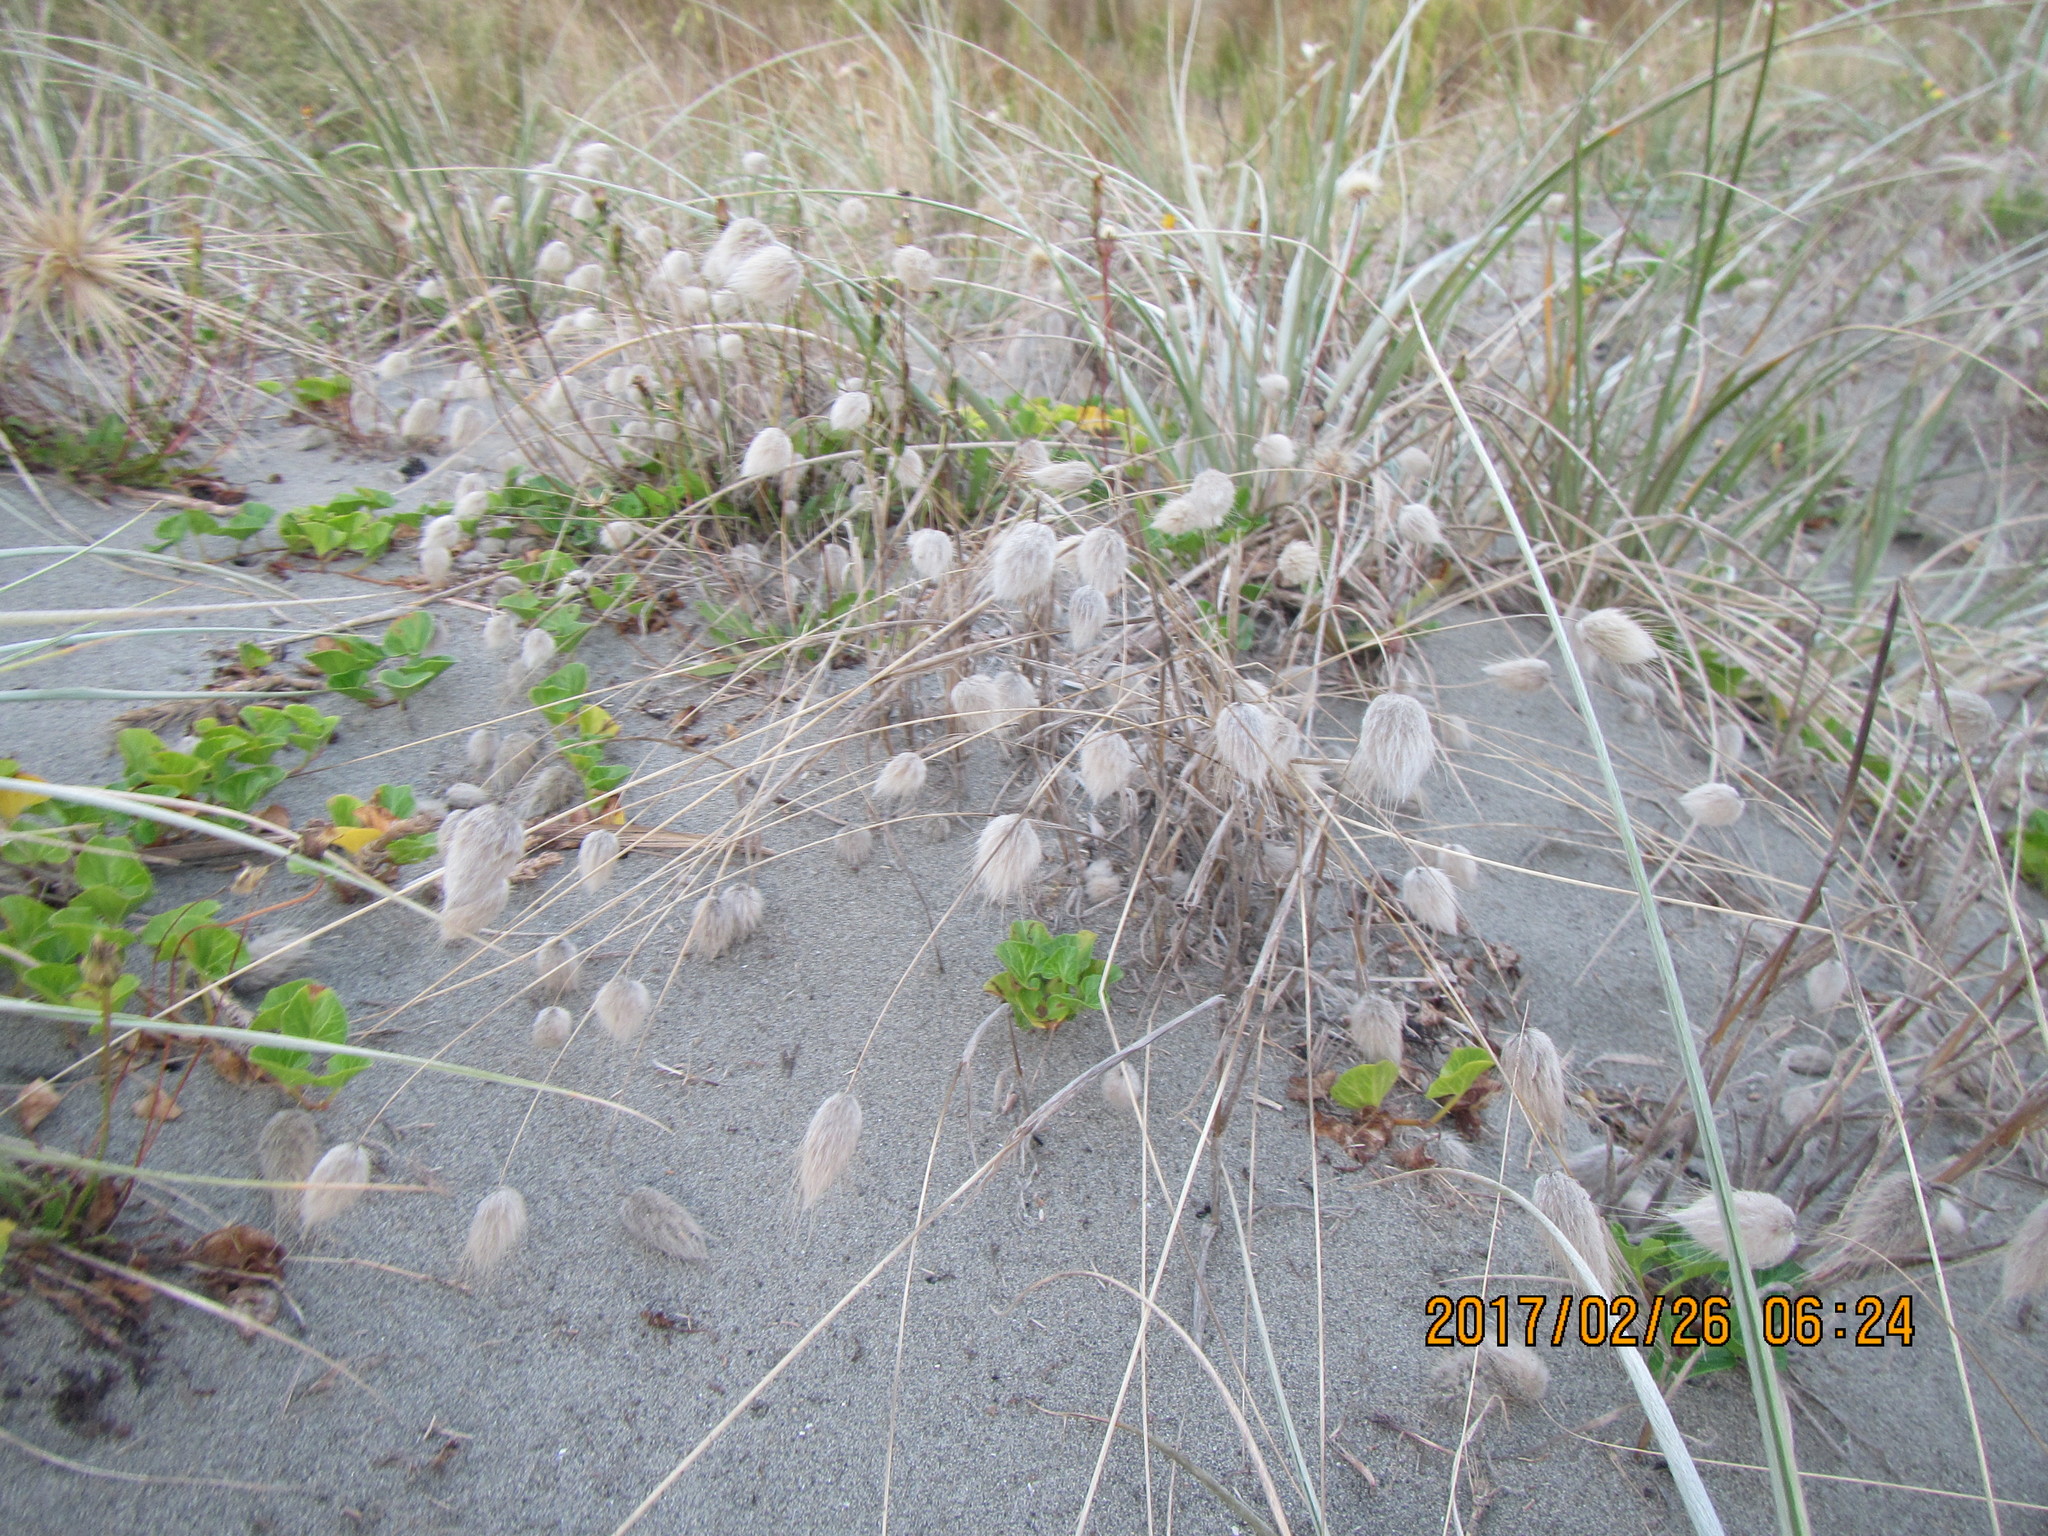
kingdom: Plantae
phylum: Tracheophyta
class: Liliopsida
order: Poales
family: Poaceae
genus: Lagurus
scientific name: Lagurus ovatus
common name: Hare's-tail
